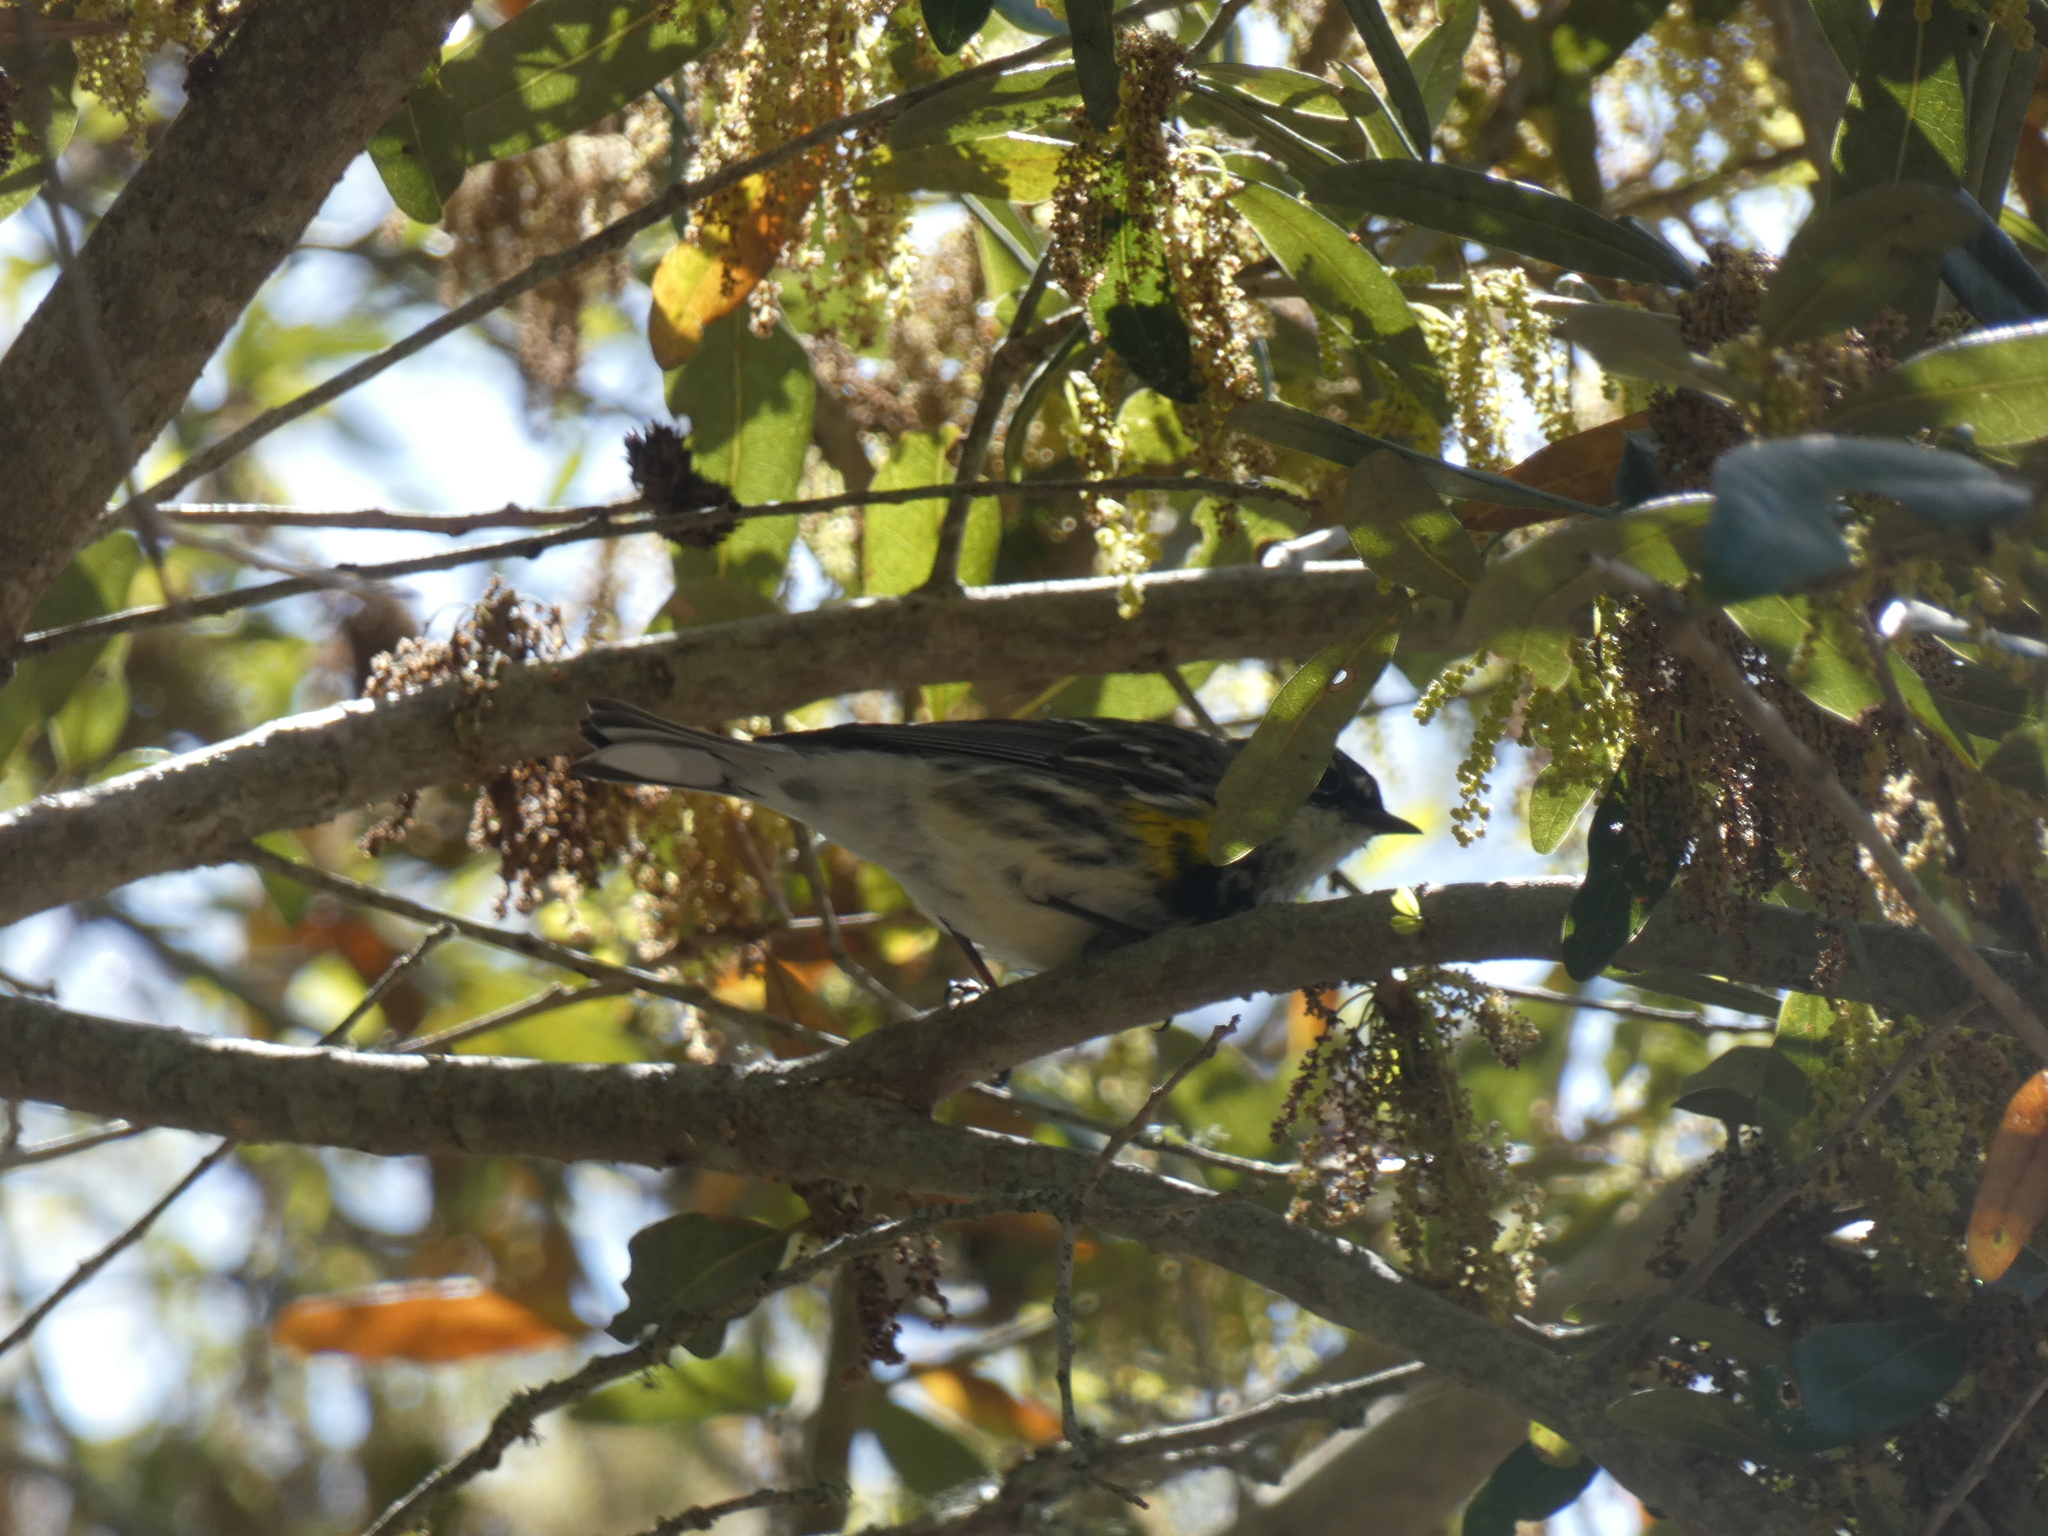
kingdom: Animalia
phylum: Chordata
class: Aves
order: Passeriformes
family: Parulidae
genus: Setophaga
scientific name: Setophaga coronata
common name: Myrtle warbler
